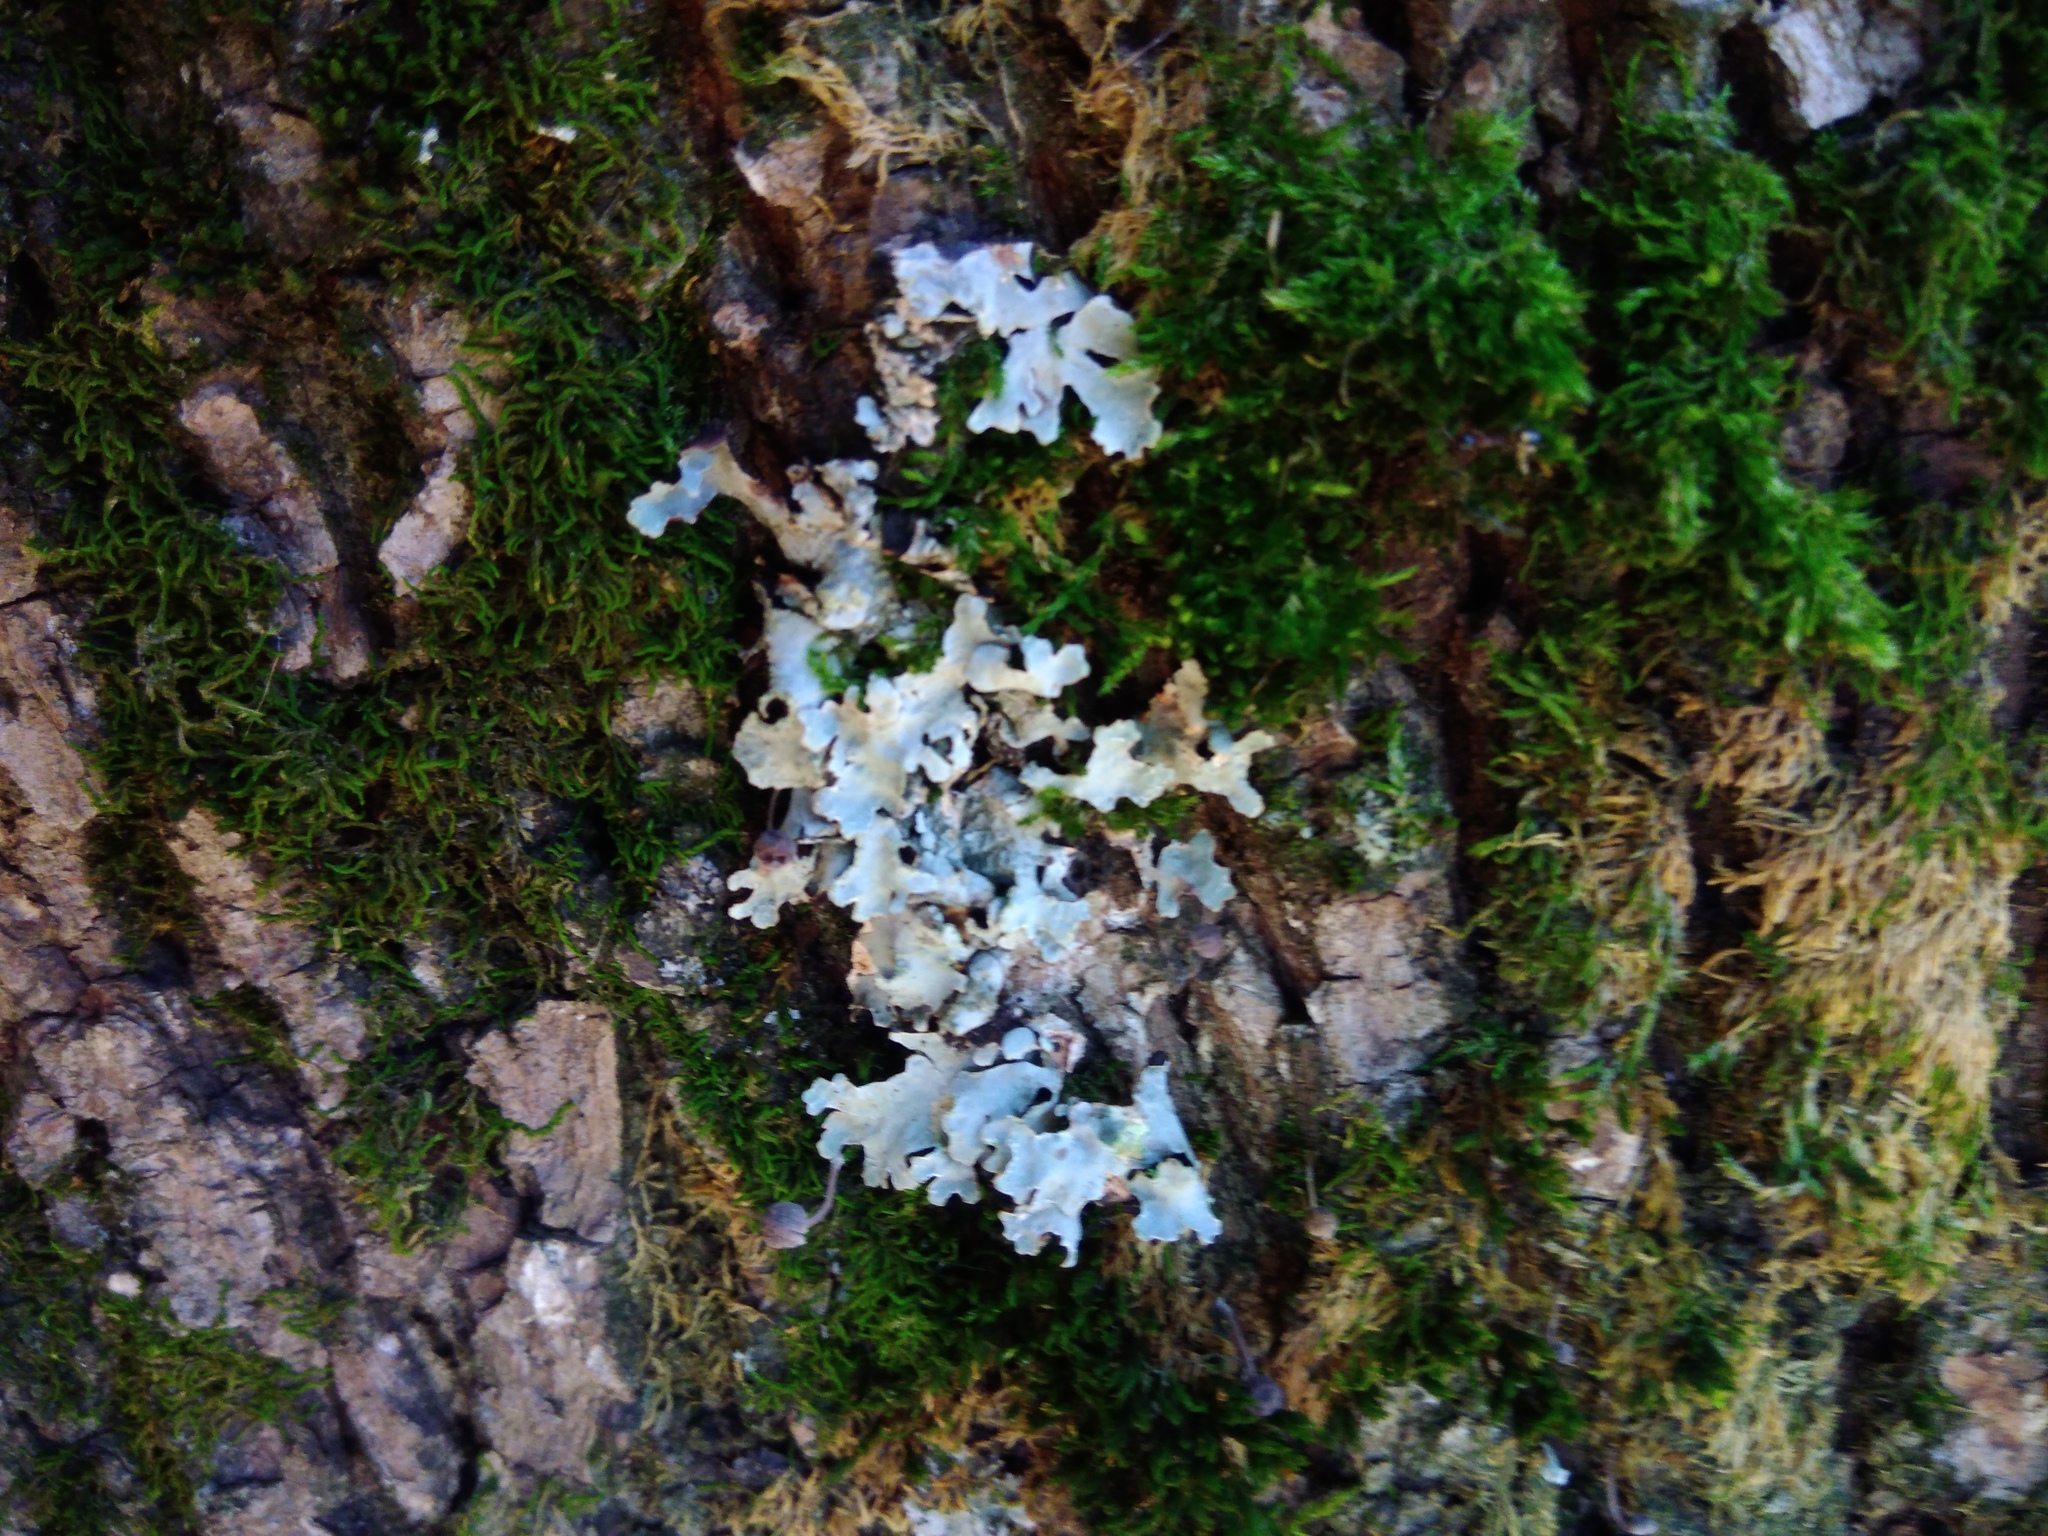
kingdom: Fungi
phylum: Ascomycota
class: Lecanoromycetes
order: Lecanorales
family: Parmeliaceae
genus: Parmelia
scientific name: Parmelia sulcata
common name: Netted shield lichen
